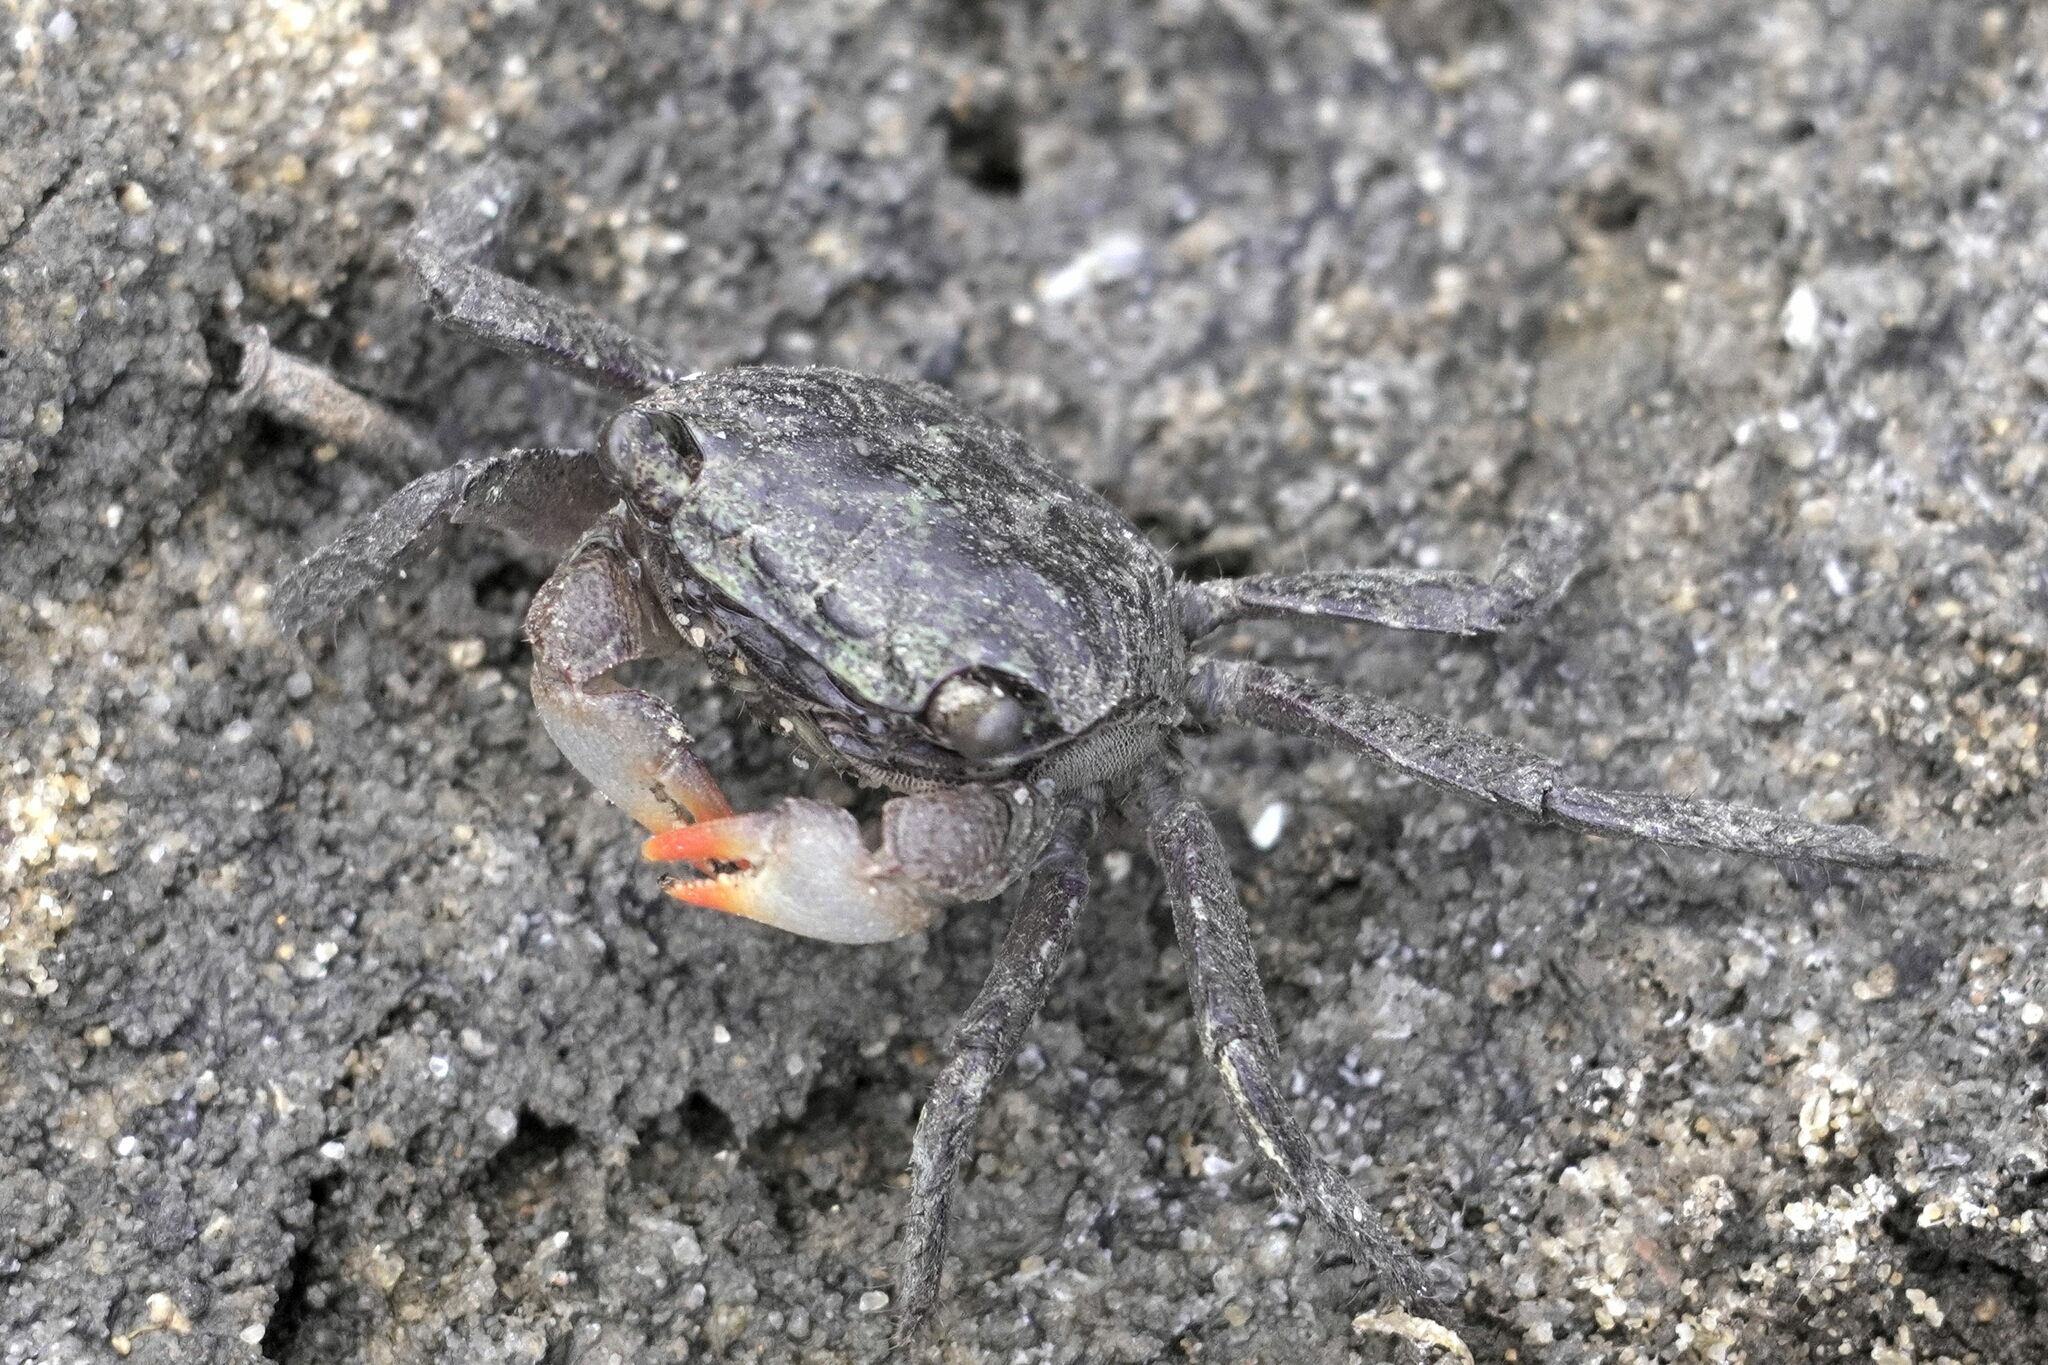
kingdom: Animalia
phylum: Arthropoda
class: Malacostraca
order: Decapoda
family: Sesarmidae
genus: Parasesarma
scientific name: Parasesarma erythodactylum
